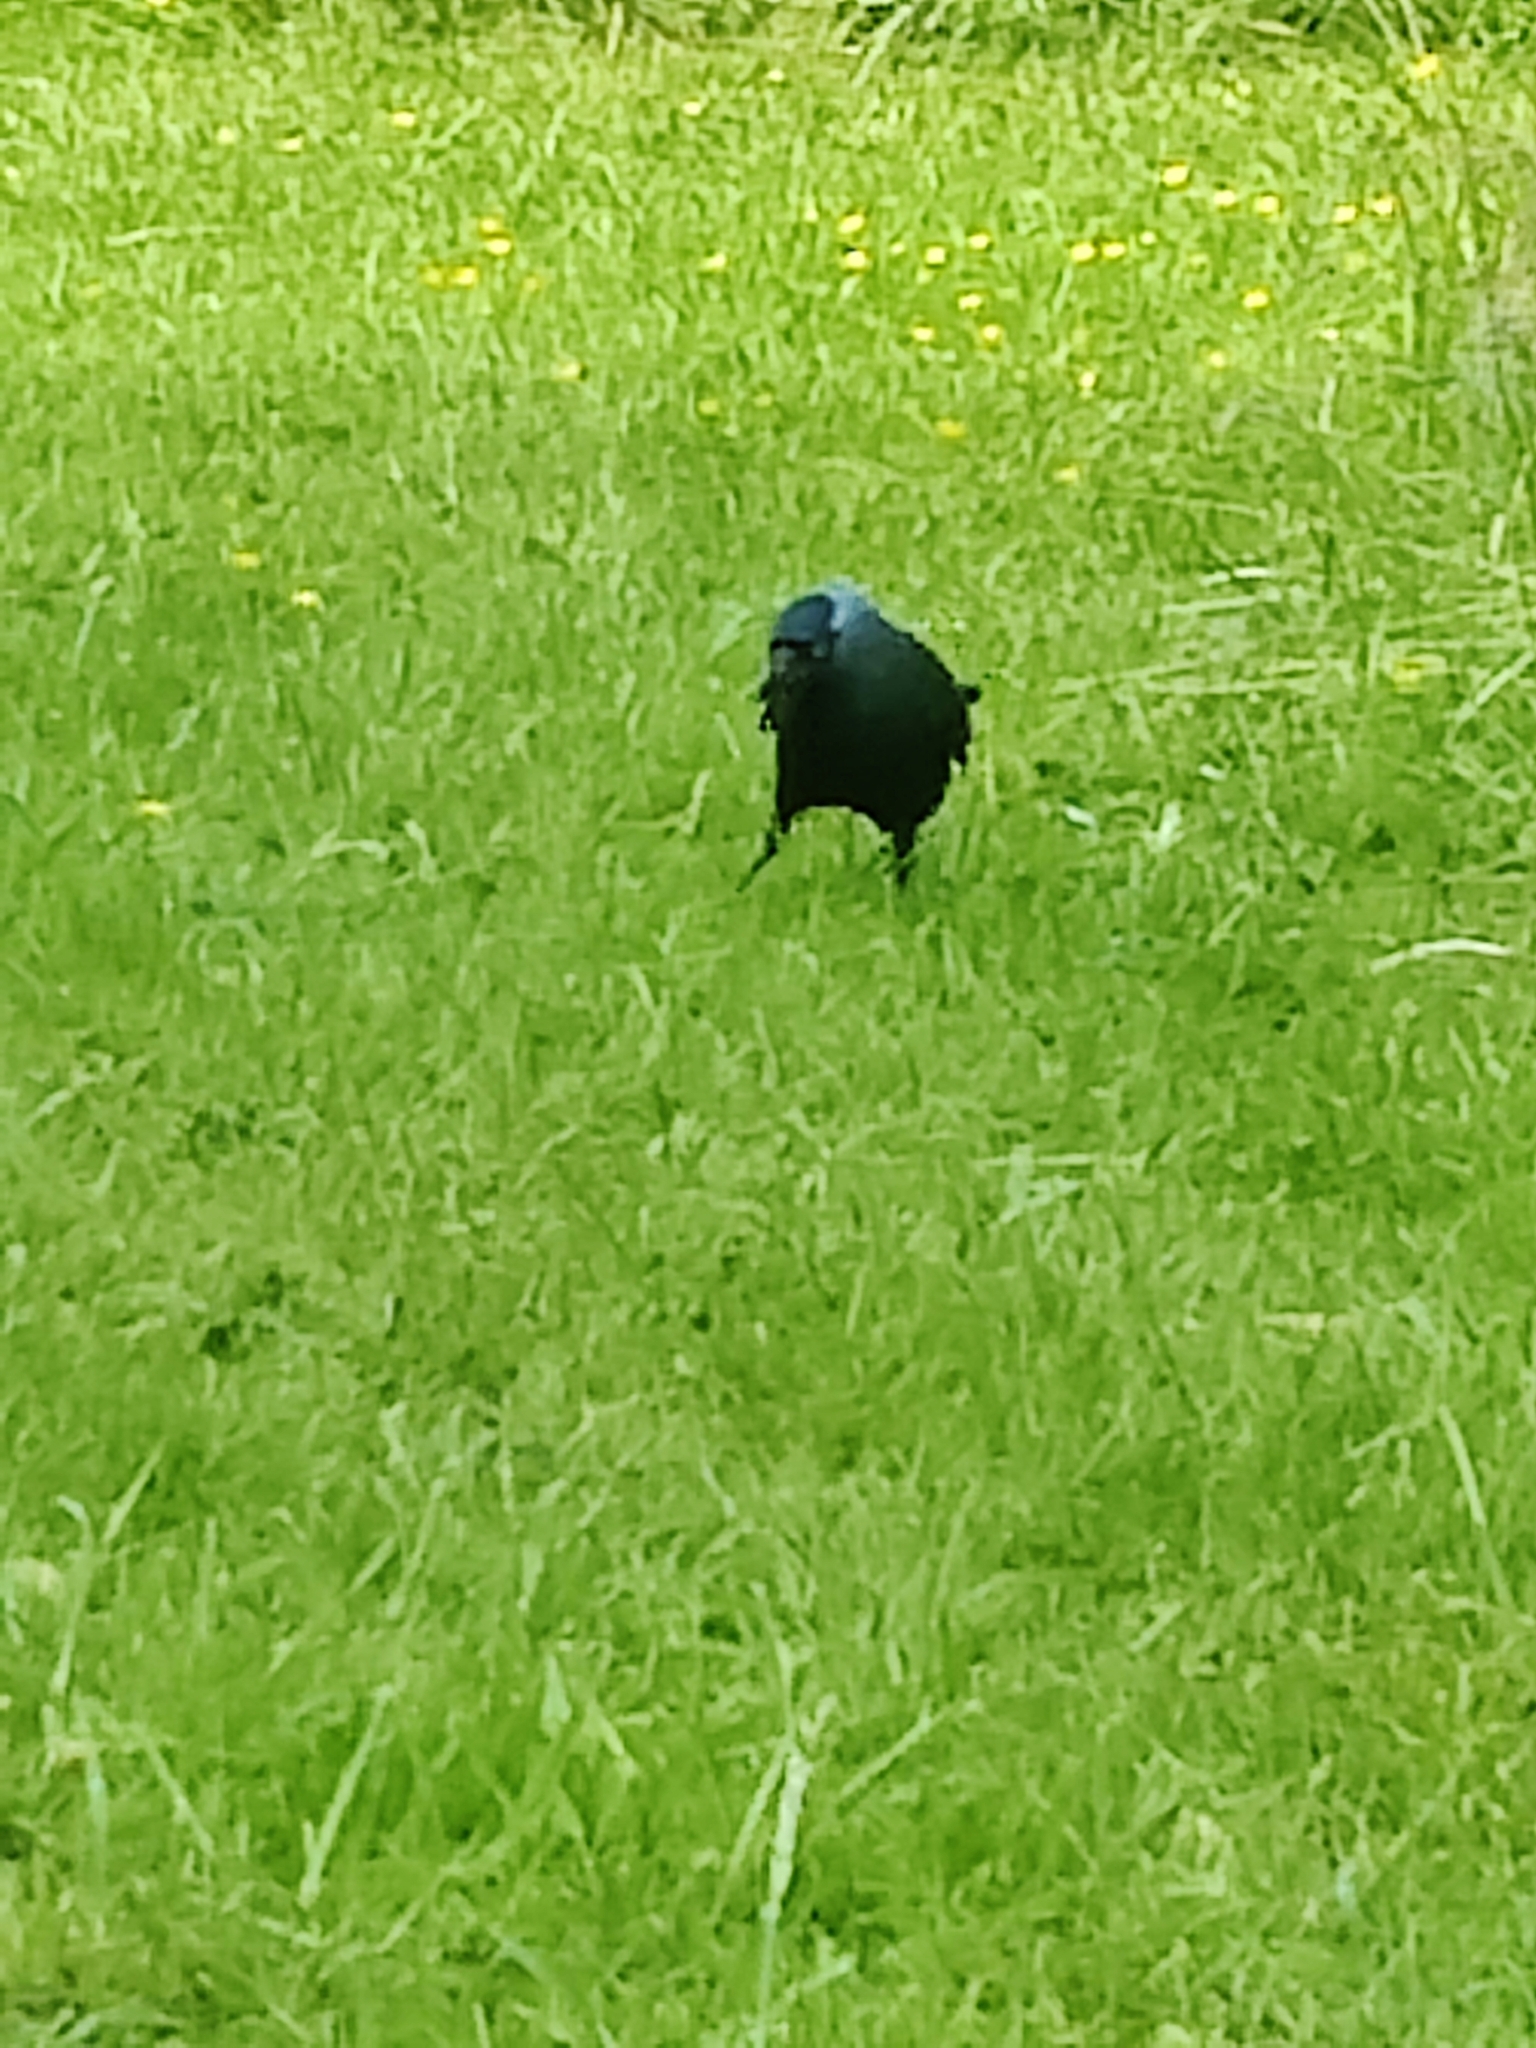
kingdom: Animalia
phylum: Chordata
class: Aves
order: Passeriformes
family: Corvidae
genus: Coloeus
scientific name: Coloeus monedula
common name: Western jackdaw
